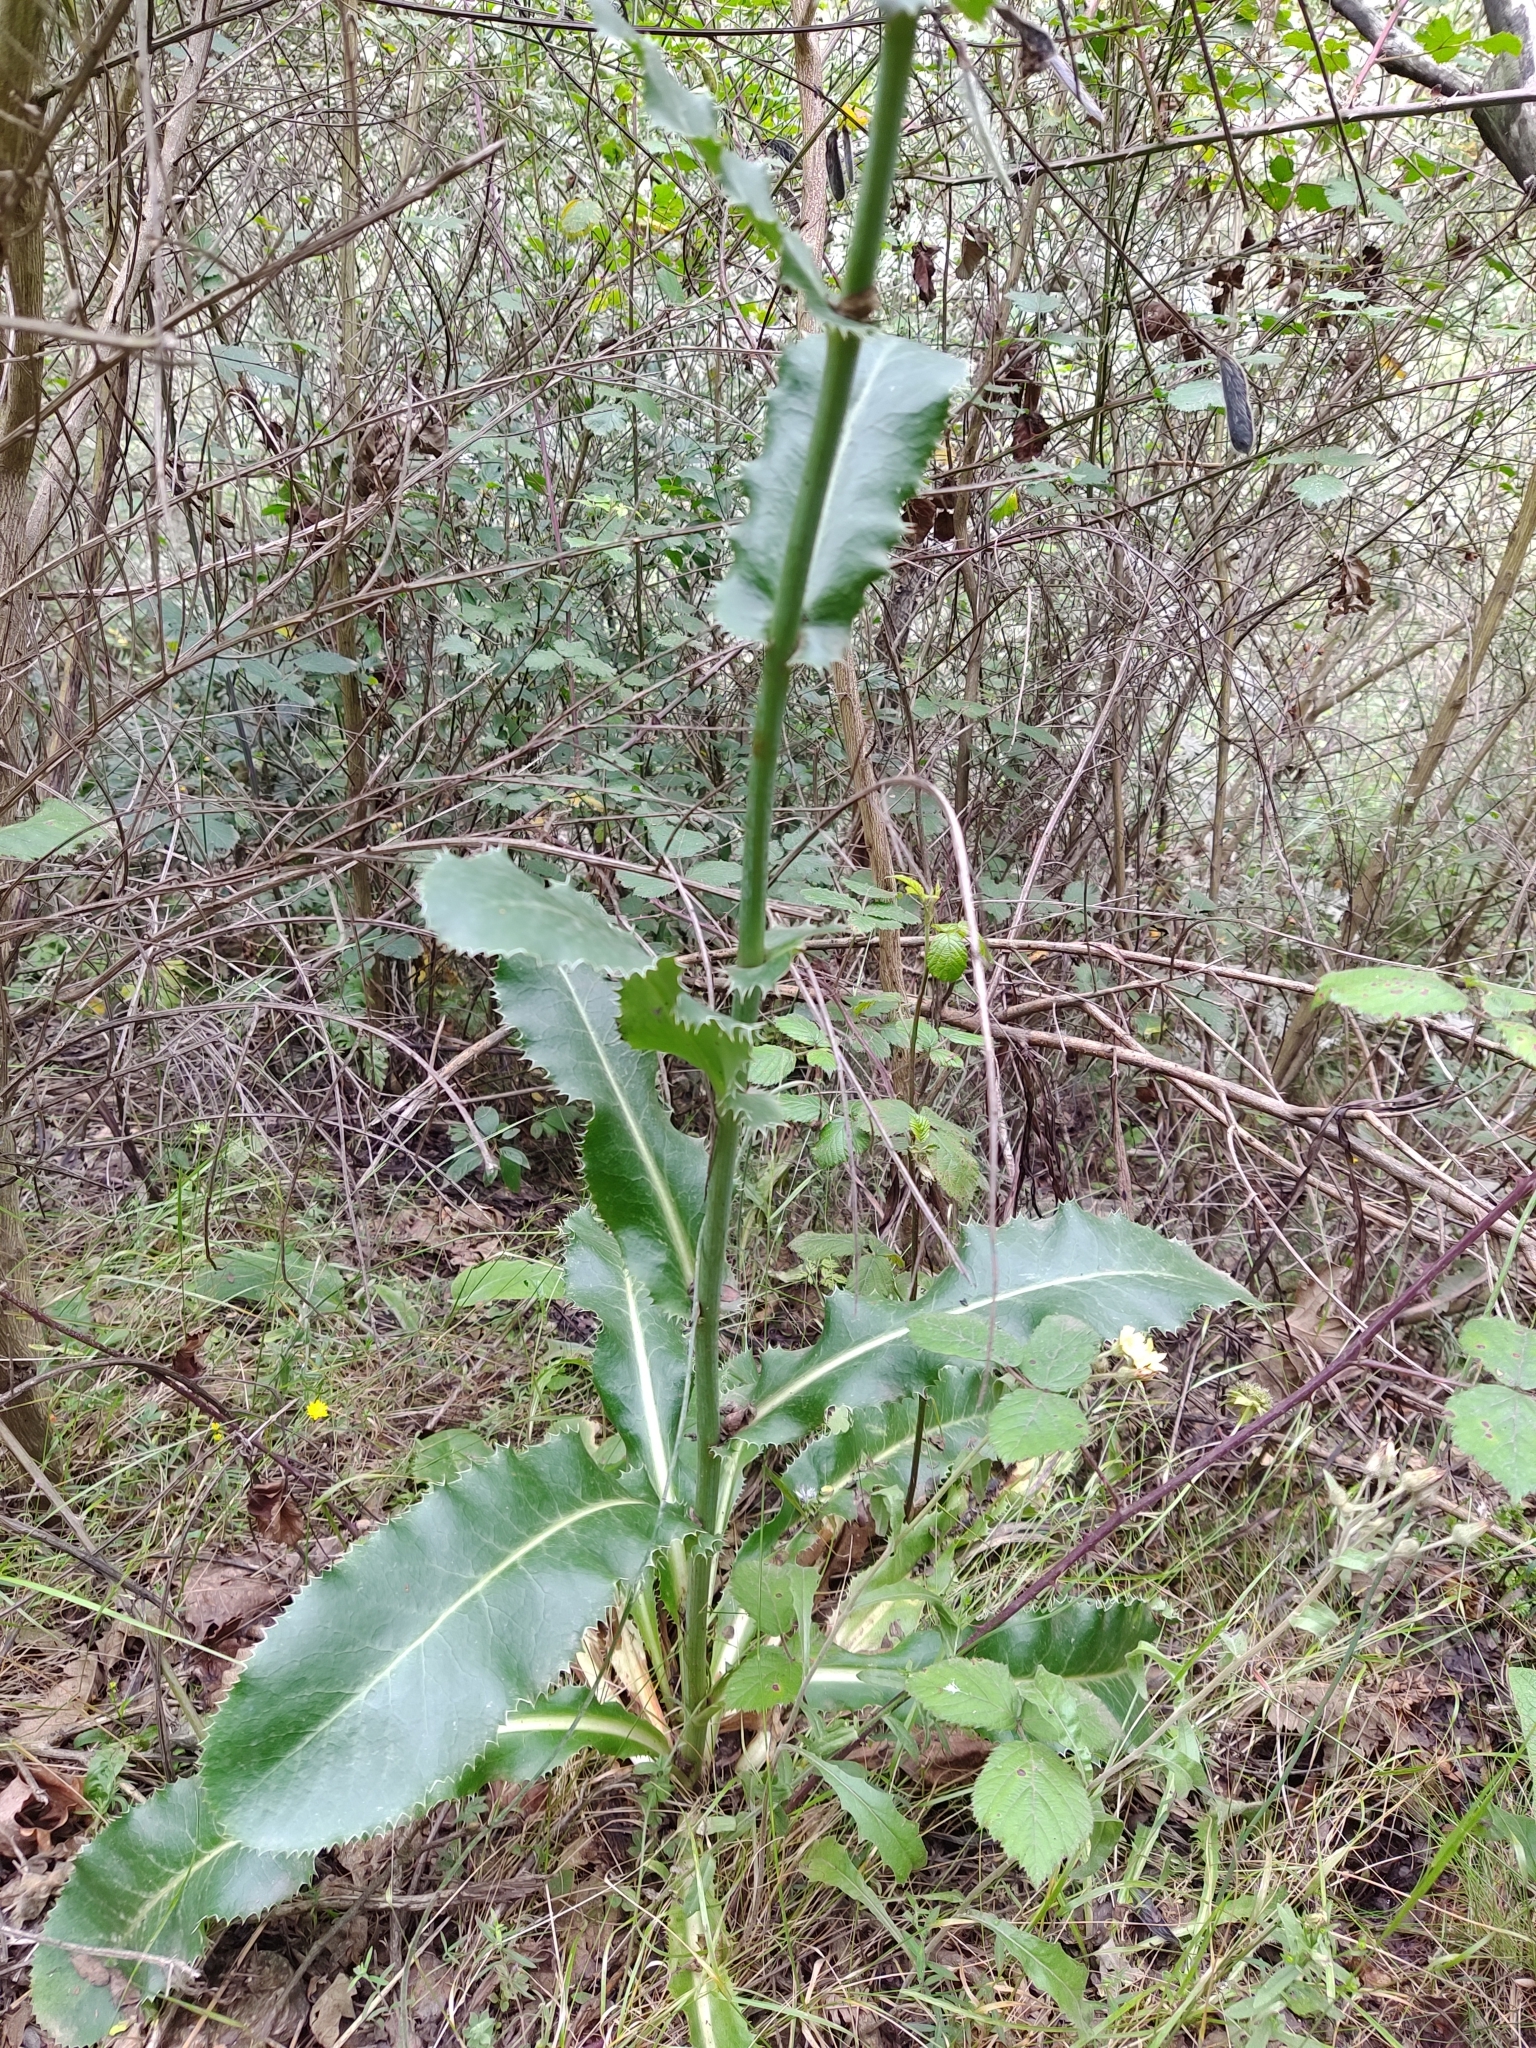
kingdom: Plantae
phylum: Tracheophyta
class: Magnoliopsida
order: Apiales
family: Apiaceae
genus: Eryngium
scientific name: Eryngium duriaei
